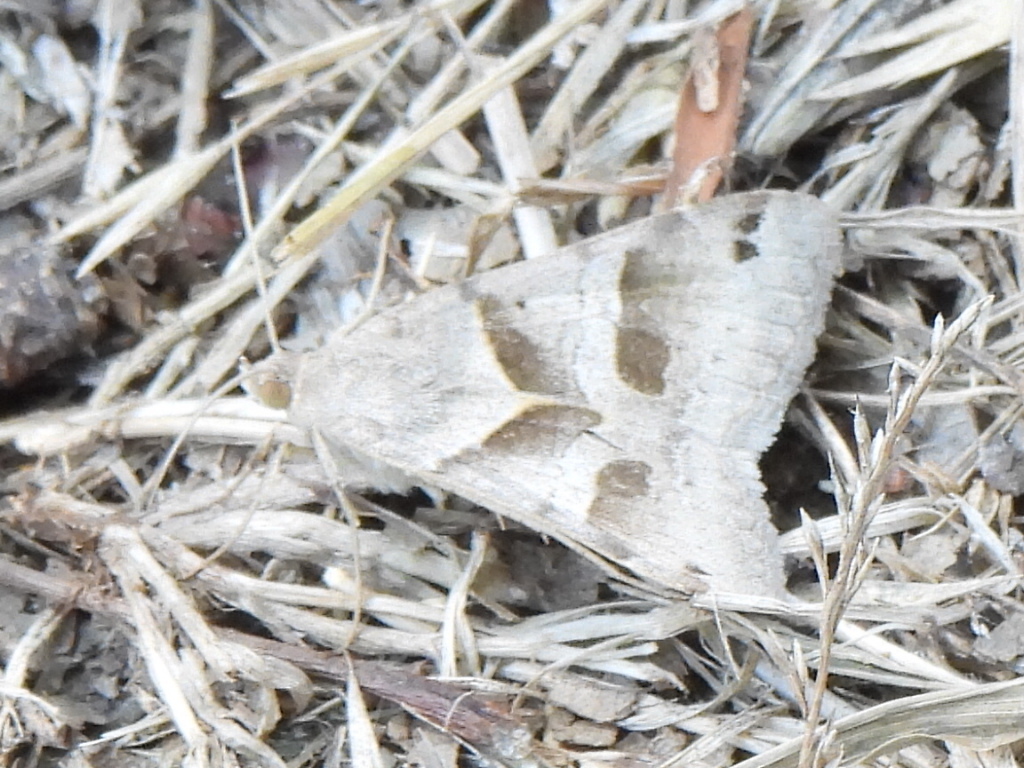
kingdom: Animalia
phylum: Arthropoda
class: Insecta
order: Lepidoptera
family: Erebidae
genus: Caenurgina
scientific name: Caenurgina erechtea
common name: Forage looper moth
